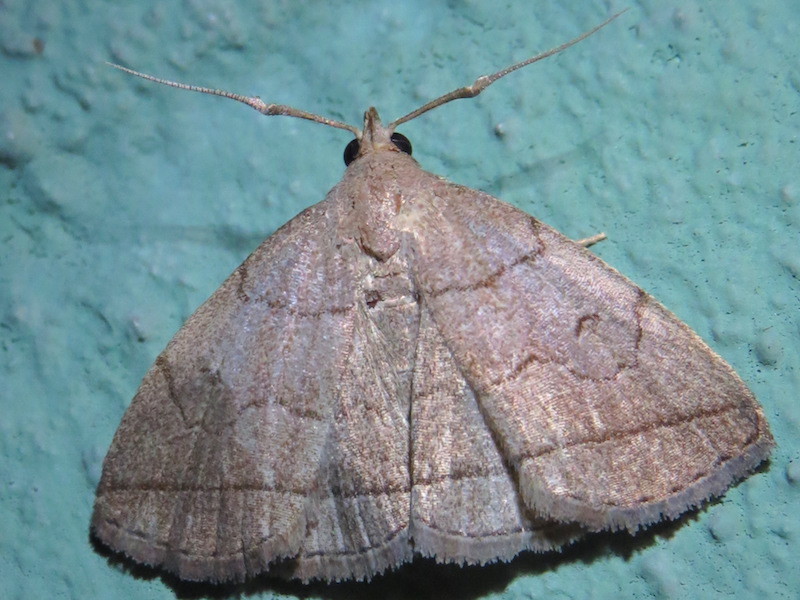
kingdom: Animalia
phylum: Arthropoda
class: Insecta
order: Lepidoptera
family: Erebidae
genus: Zanclognatha
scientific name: Zanclognatha cruralis
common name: Early fan-foot
